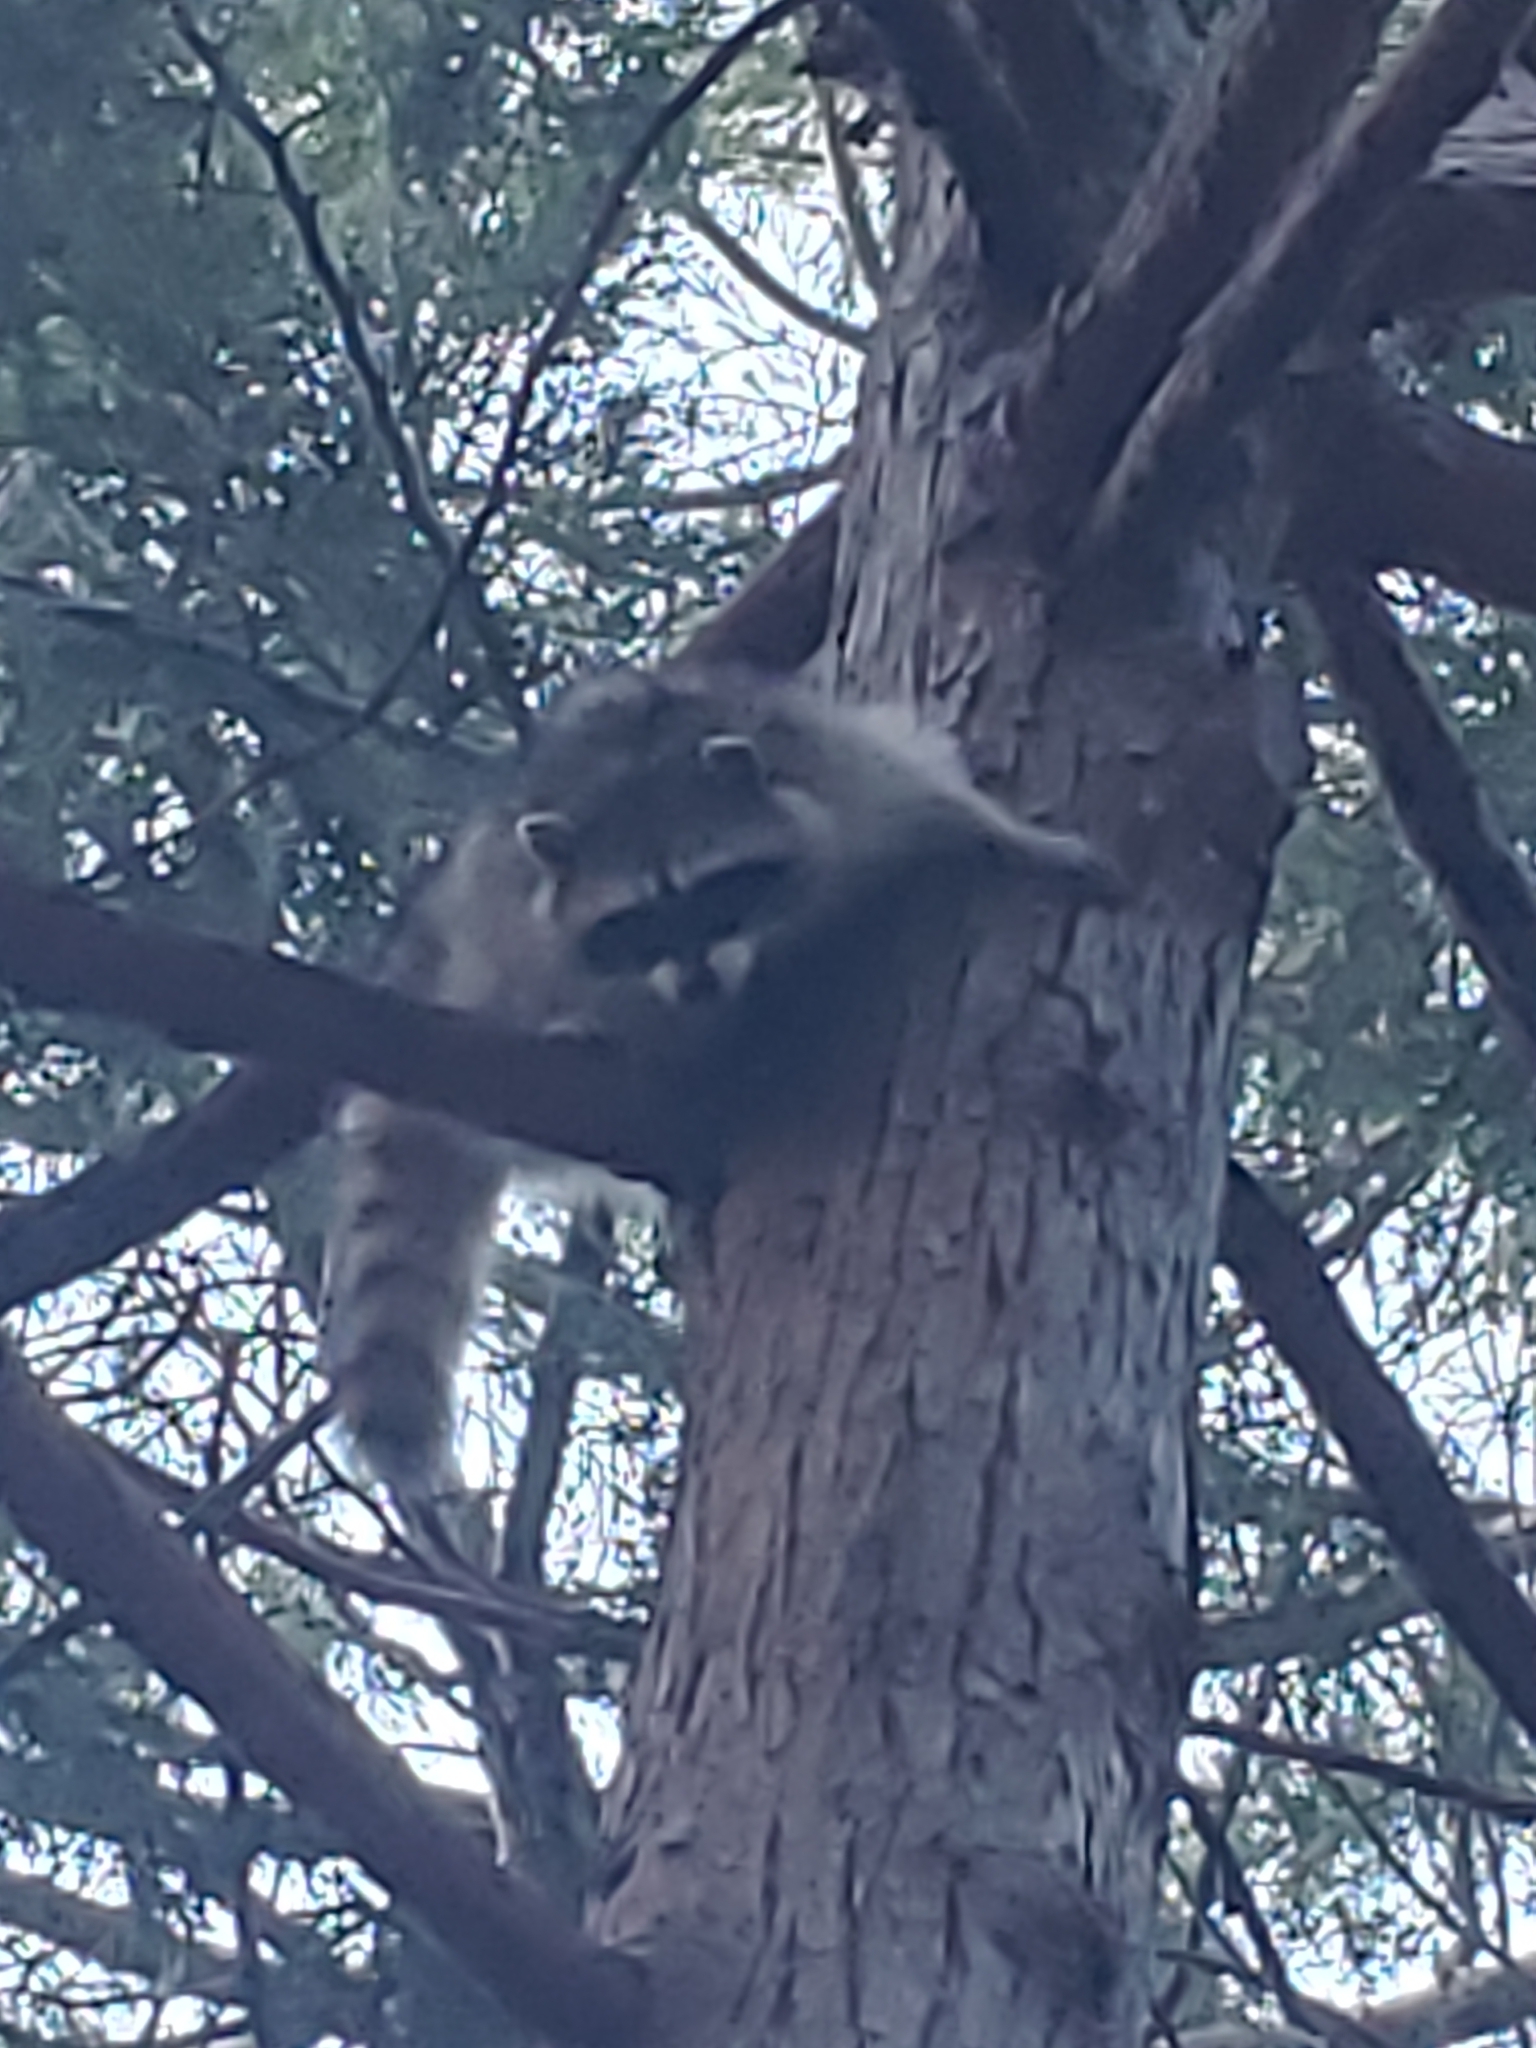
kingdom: Animalia
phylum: Chordata
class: Mammalia
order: Carnivora
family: Procyonidae
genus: Procyon
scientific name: Procyon lotor
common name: Raccoon
